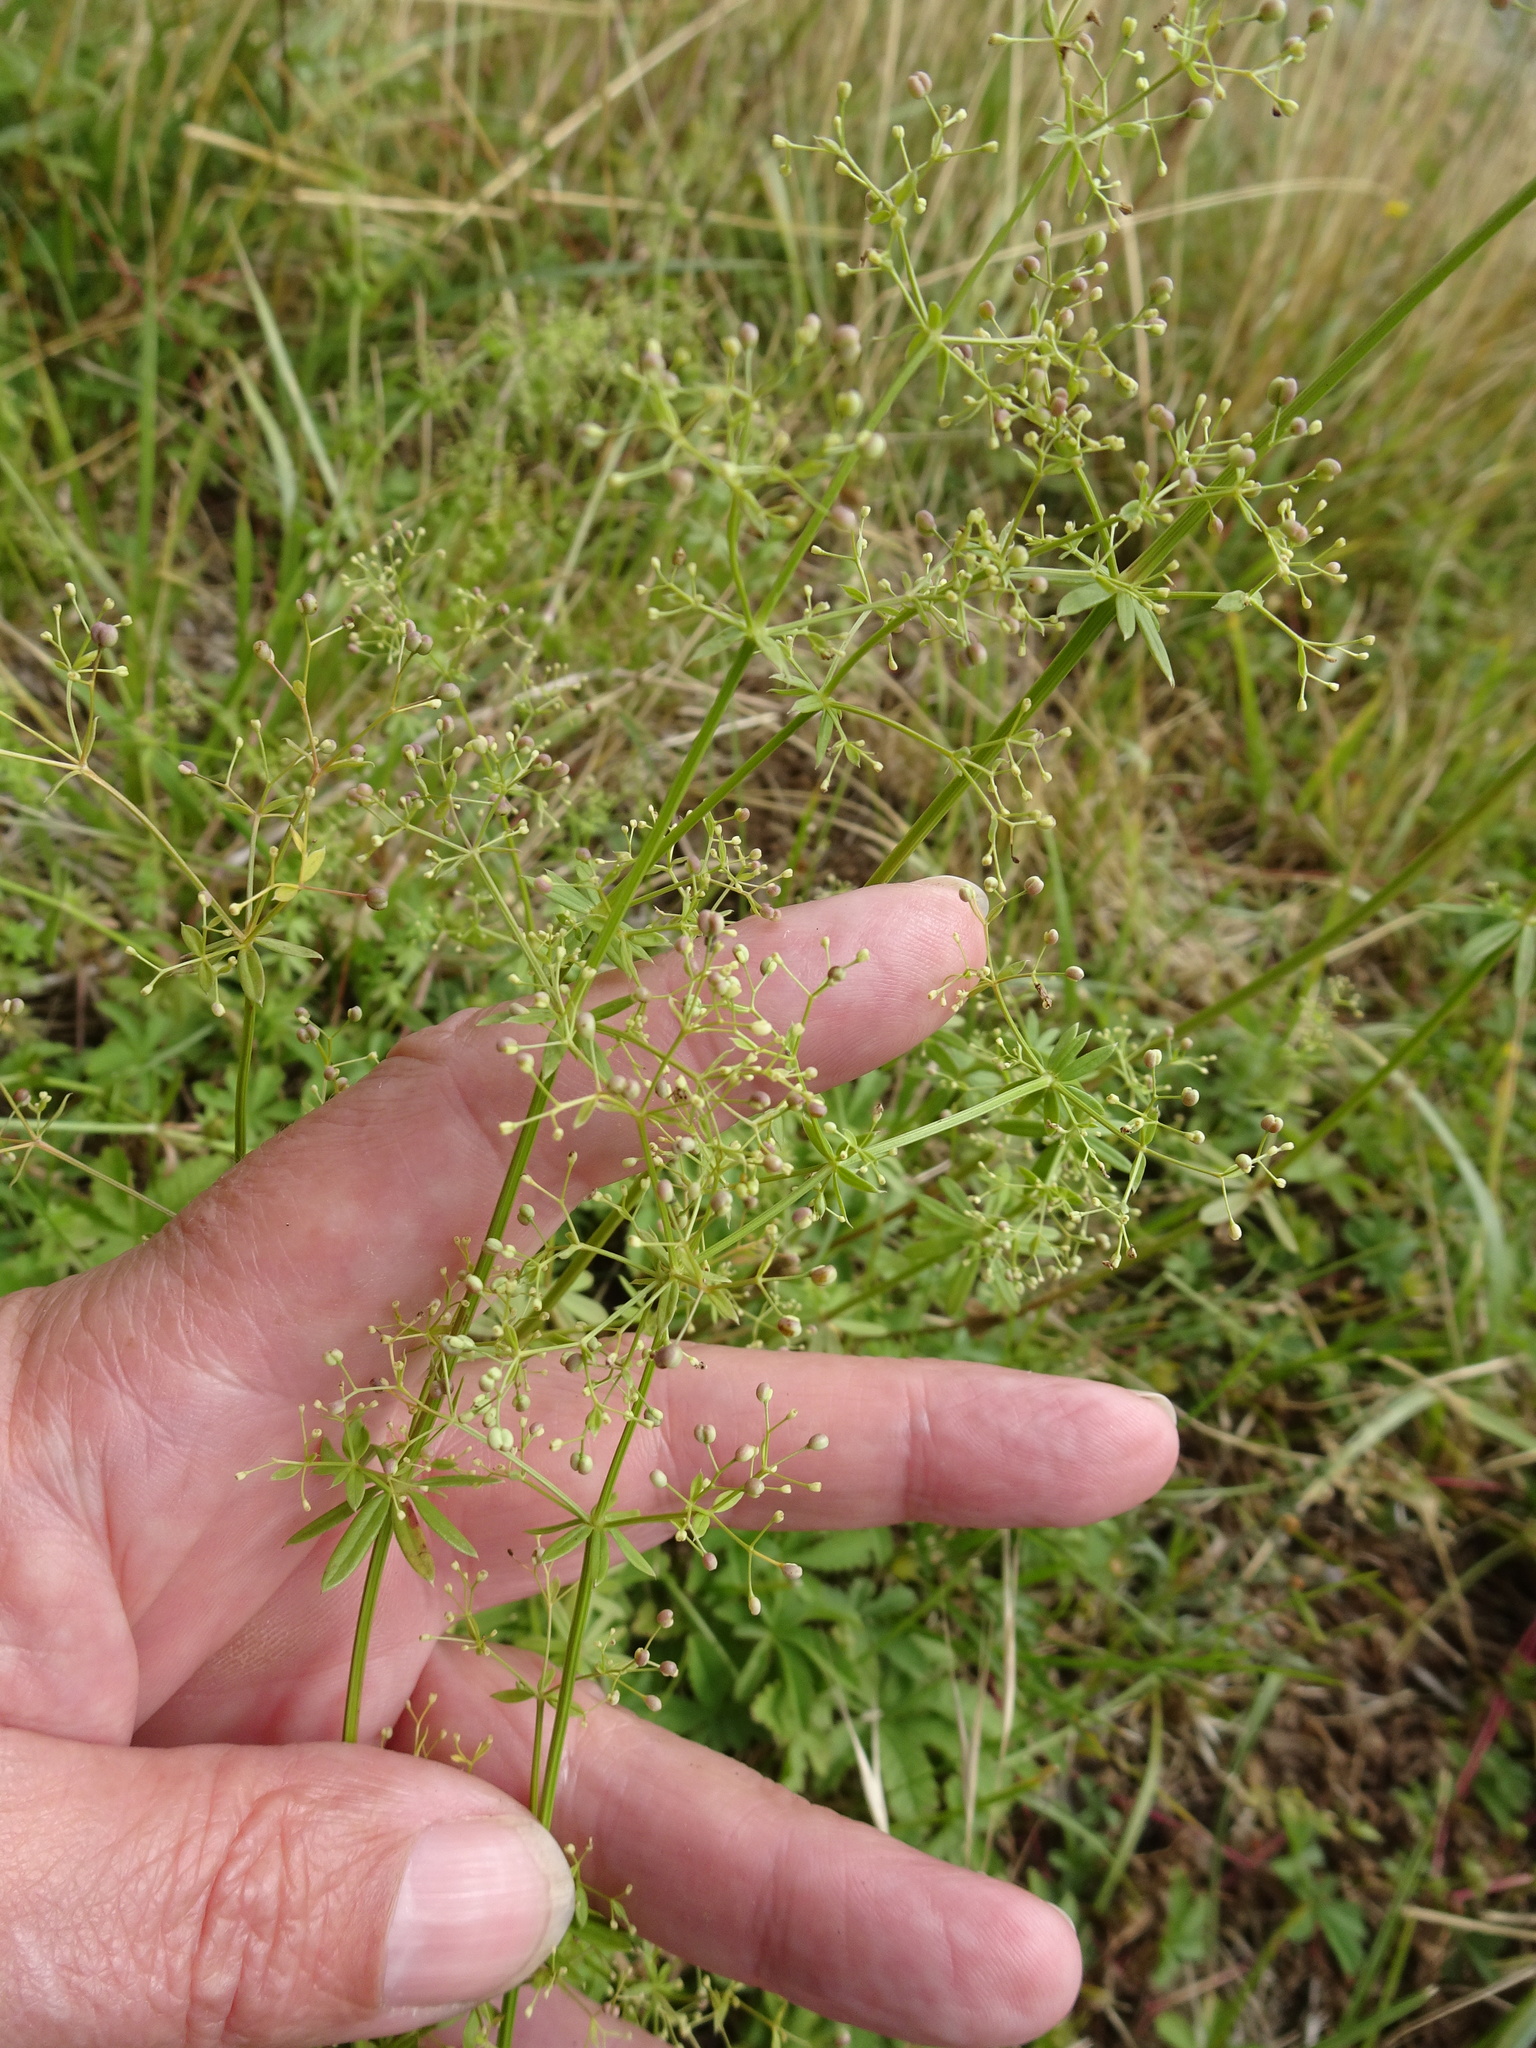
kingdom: Plantae
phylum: Tracheophyta
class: Magnoliopsida
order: Gentianales
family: Rubiaceae
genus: Galium
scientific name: Galium album
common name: White bedstraw
